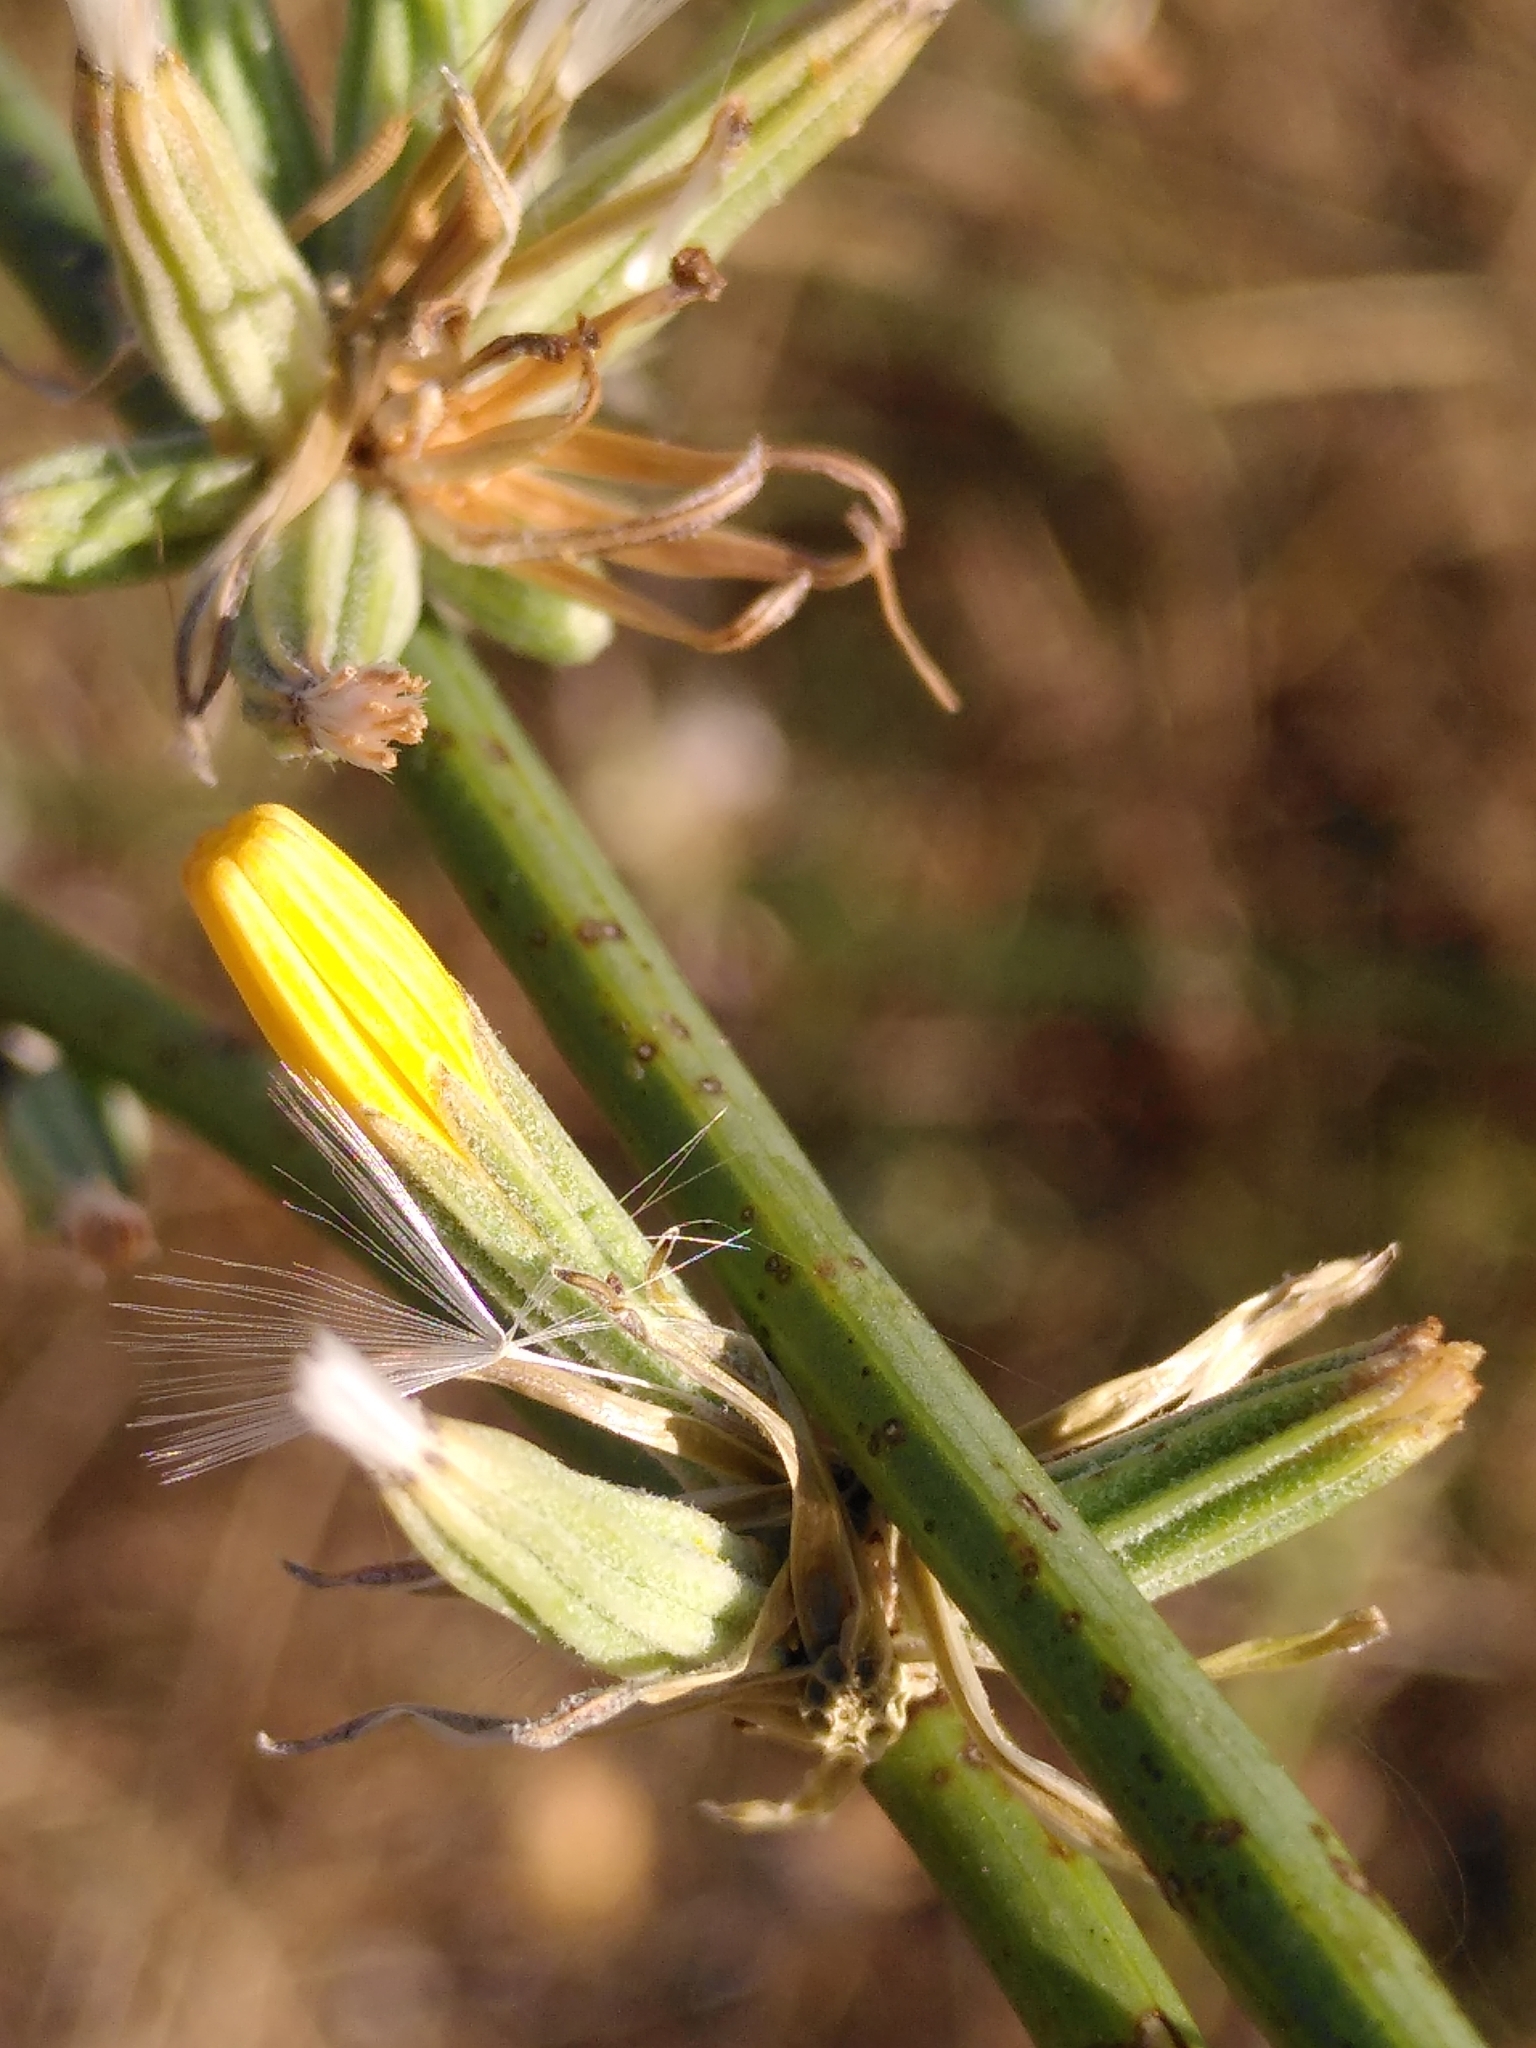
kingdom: Plantae
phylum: Tracheophyta
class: Magnoliopsida
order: Asterales
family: Asteraceae
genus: Chondrilla
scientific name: Chondrilla juncea
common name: Skeleton weed
